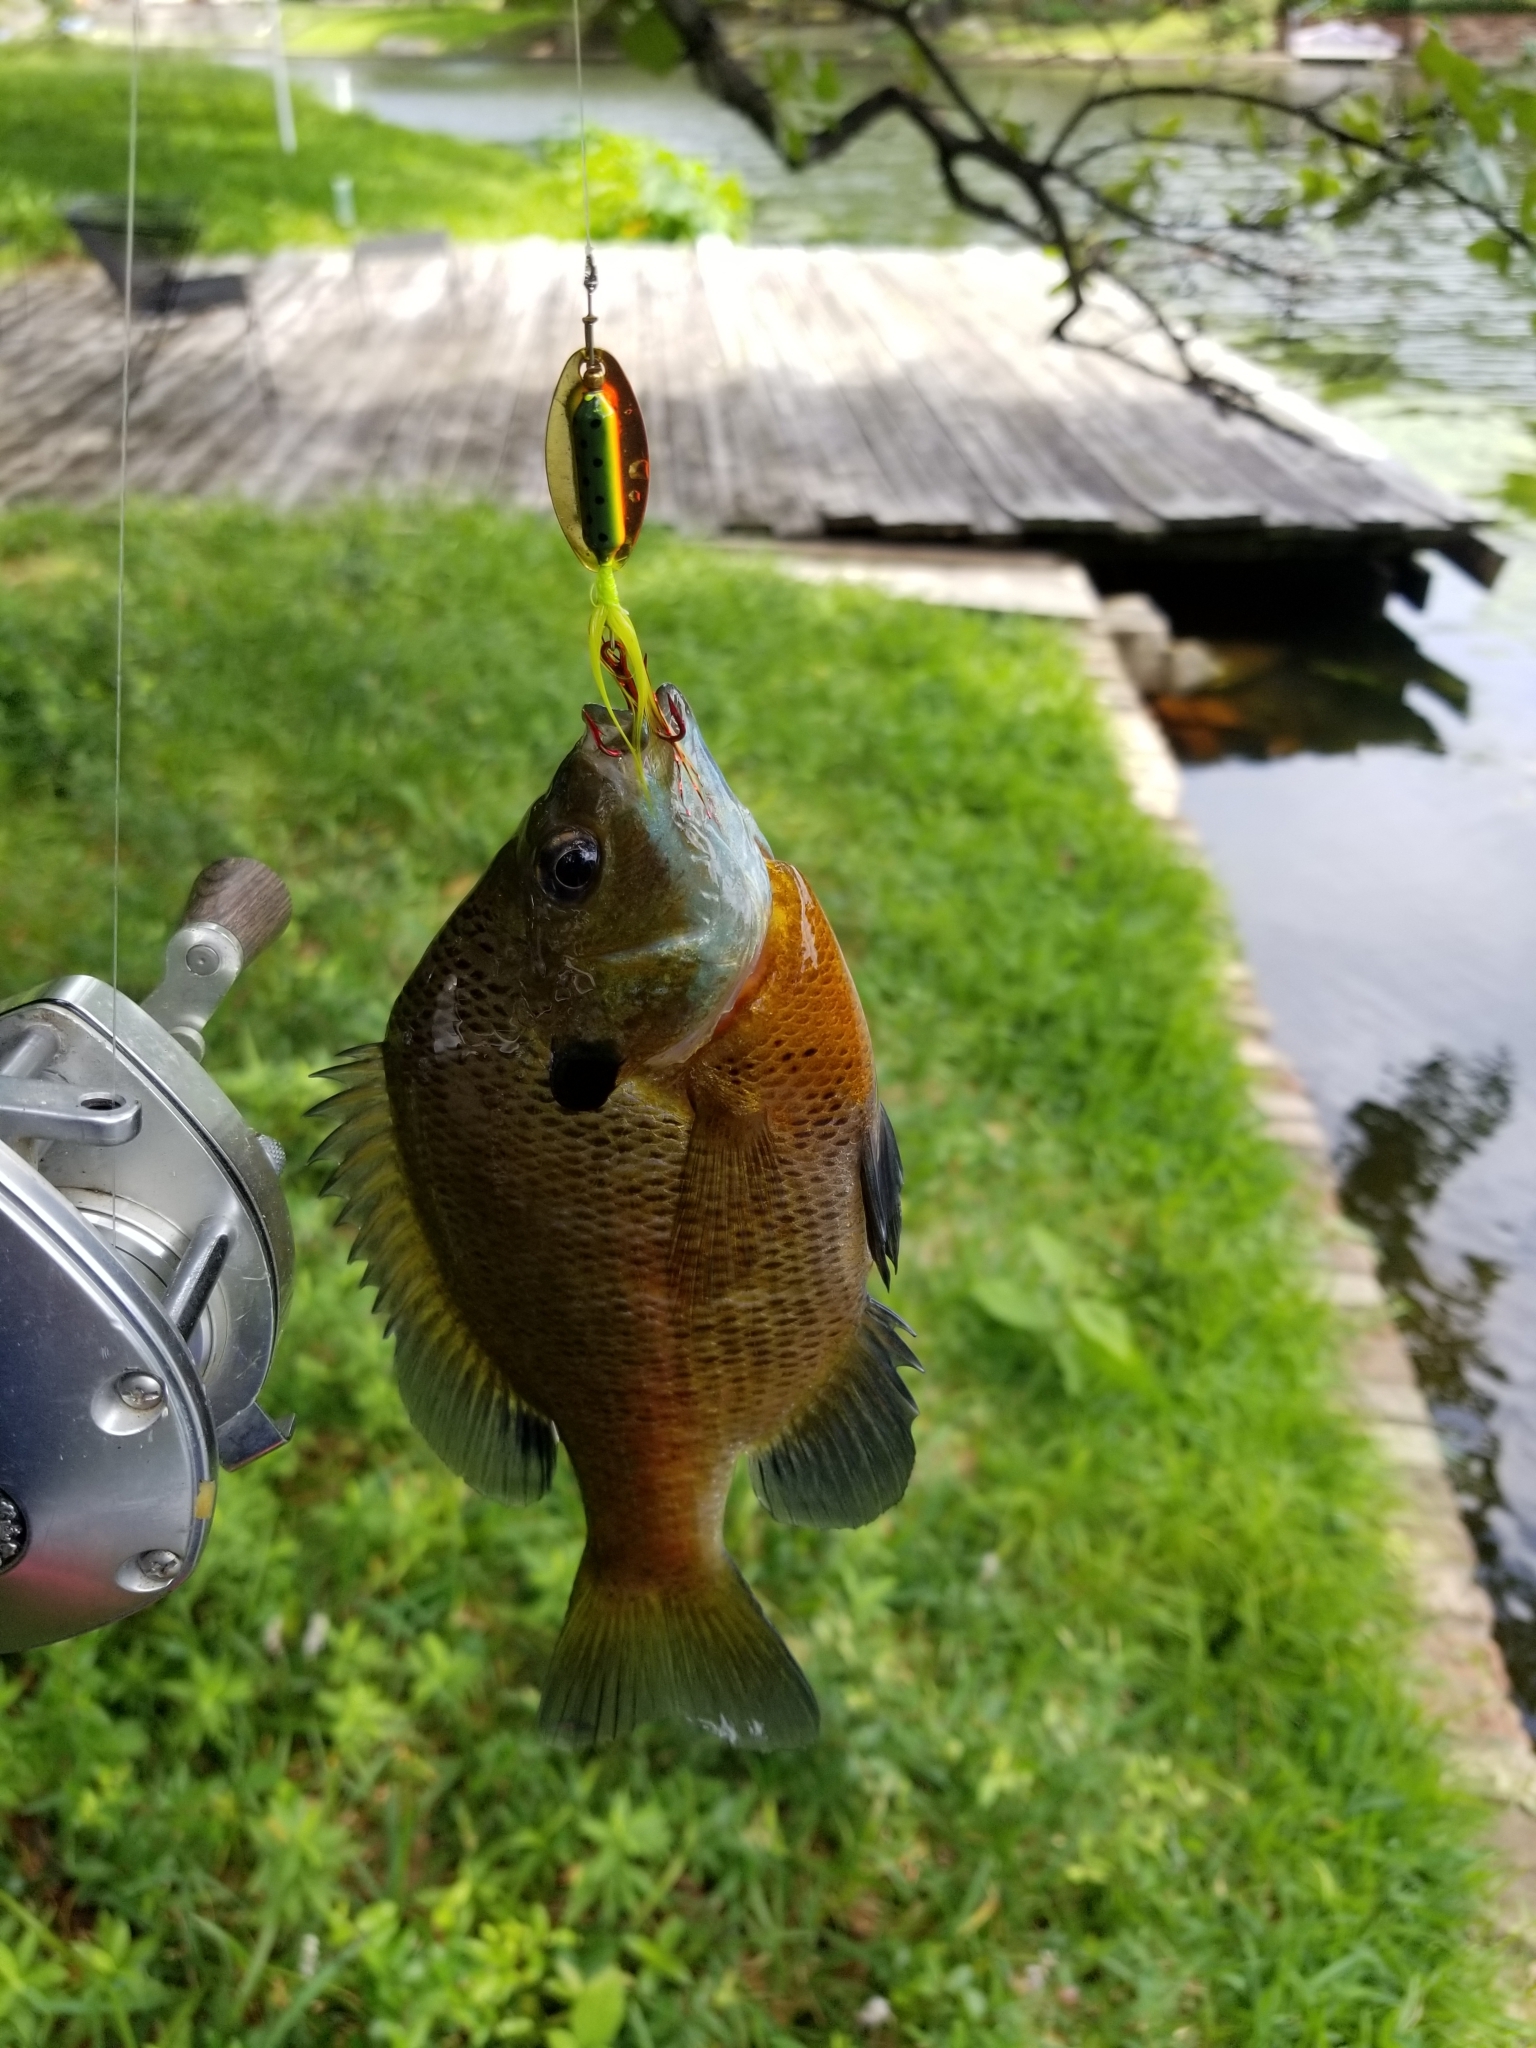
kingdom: Animalia
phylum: Chordata
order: Perciformes
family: Centrarchidae
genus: Lepomis
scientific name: Lepomis macrochirus
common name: Bluegill
